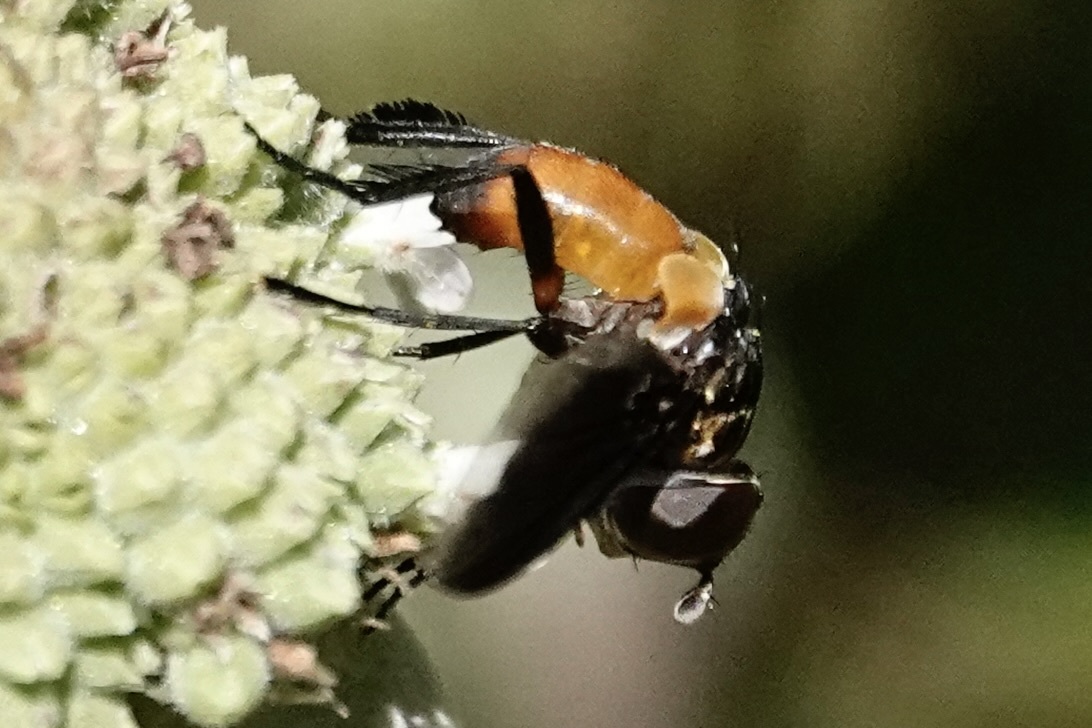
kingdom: Animalia
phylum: Arthropoda
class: Insecta
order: Diptera
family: Tachinidae
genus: Trichopoda
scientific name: Trichopoda pennipes
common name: Tachinid fly
